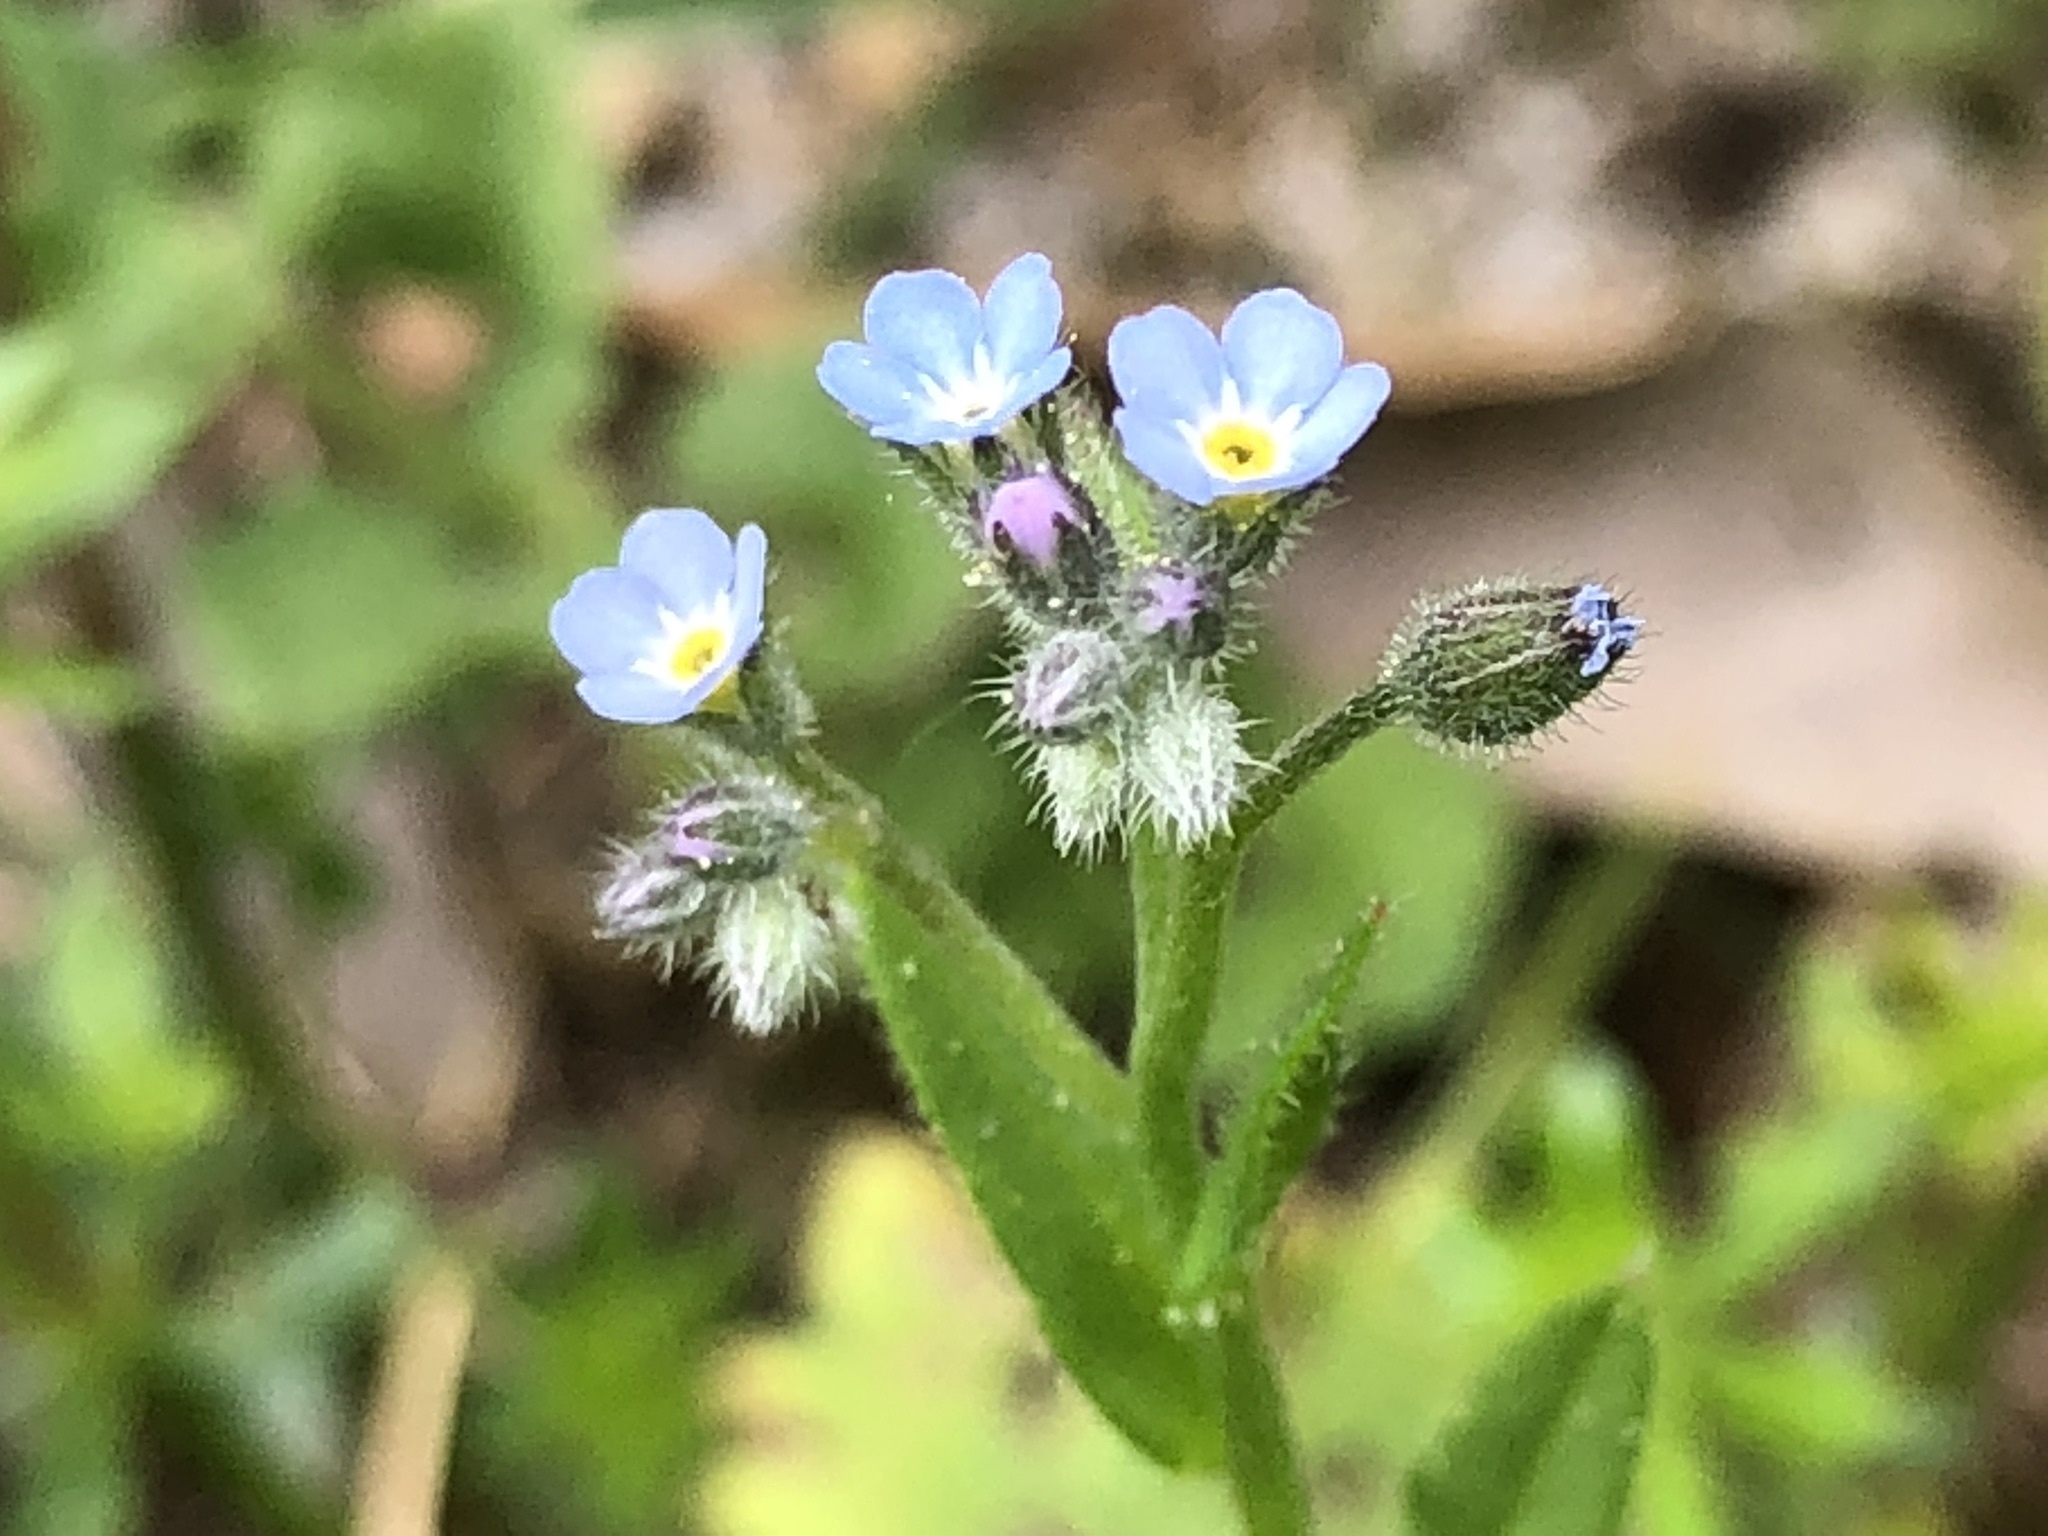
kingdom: Plantae
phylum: Tracheophyta
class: Magnoliopsida
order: Boraginales
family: Boraginaceae
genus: Myosotis
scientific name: Myosotis arvensis
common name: Field forget-me-not
